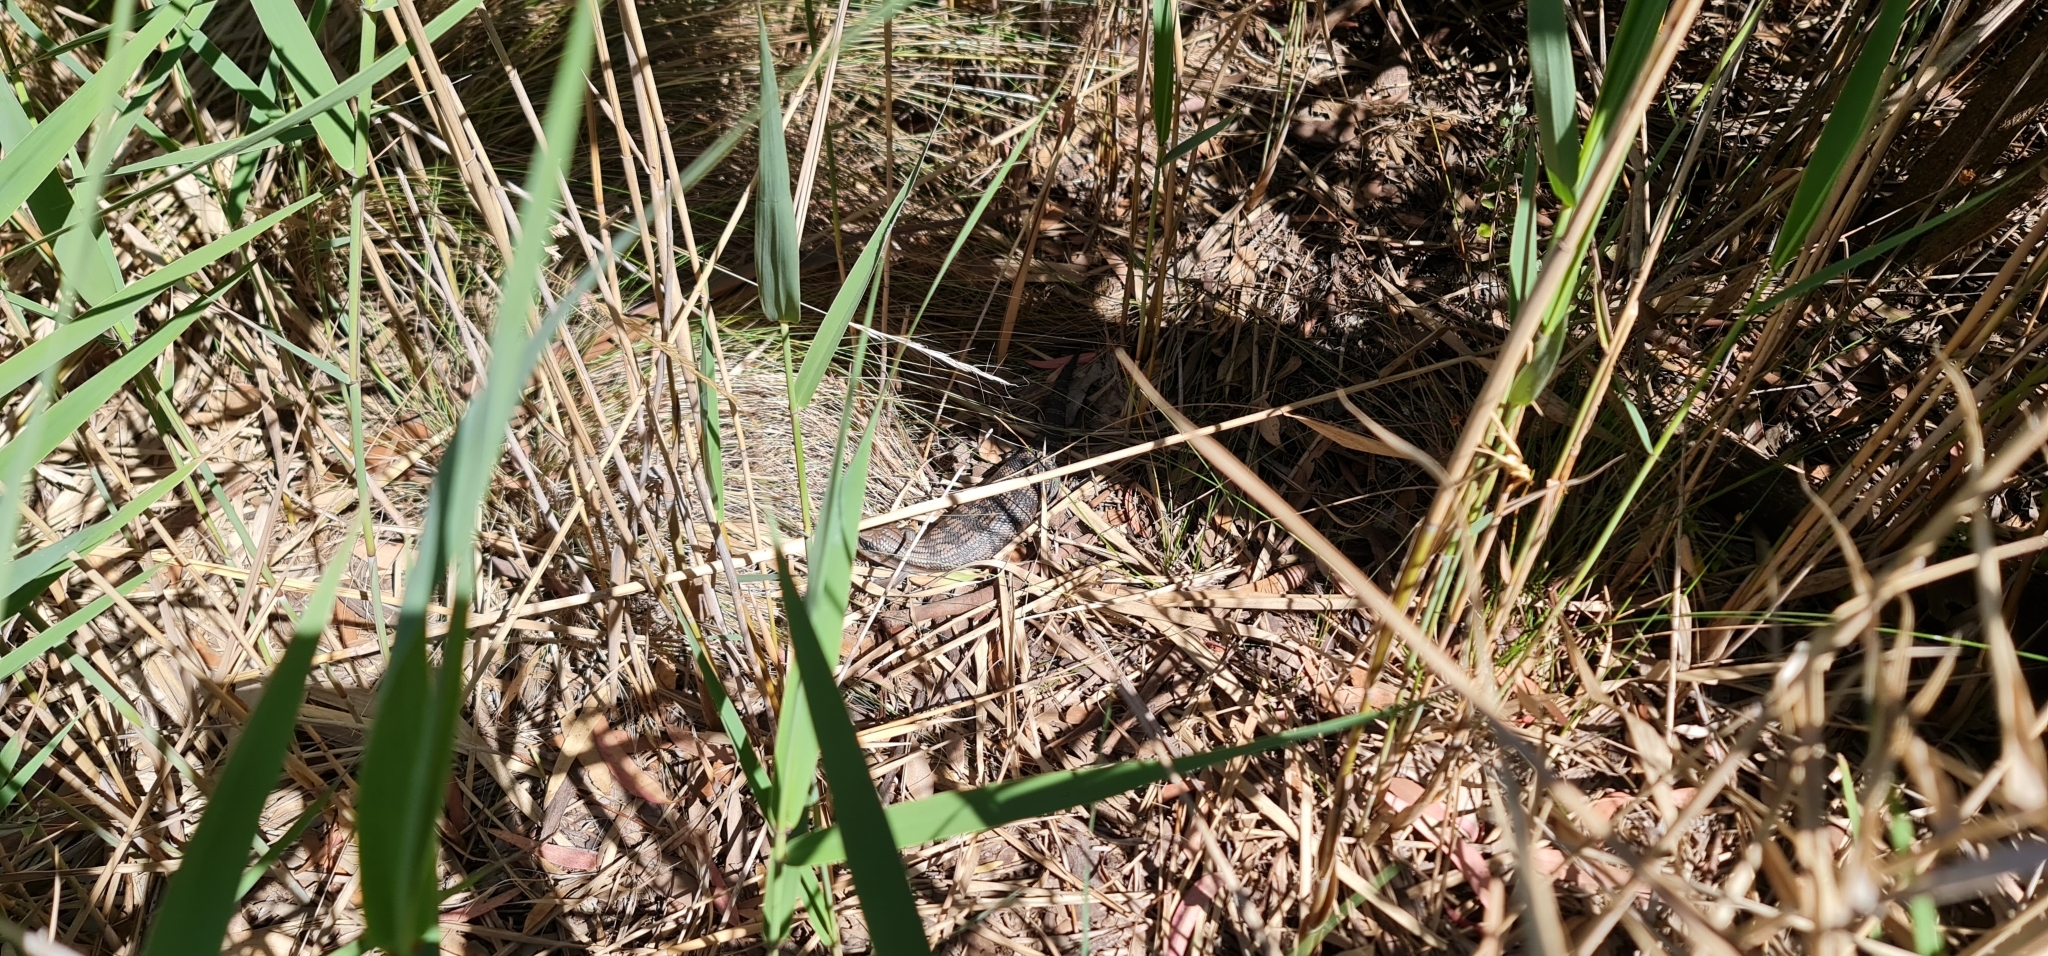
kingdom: Animalia
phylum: Chordata
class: Squamata
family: Scincidae
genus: Tiliqua
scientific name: Tiliqua scincoides
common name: Common bluetongue
